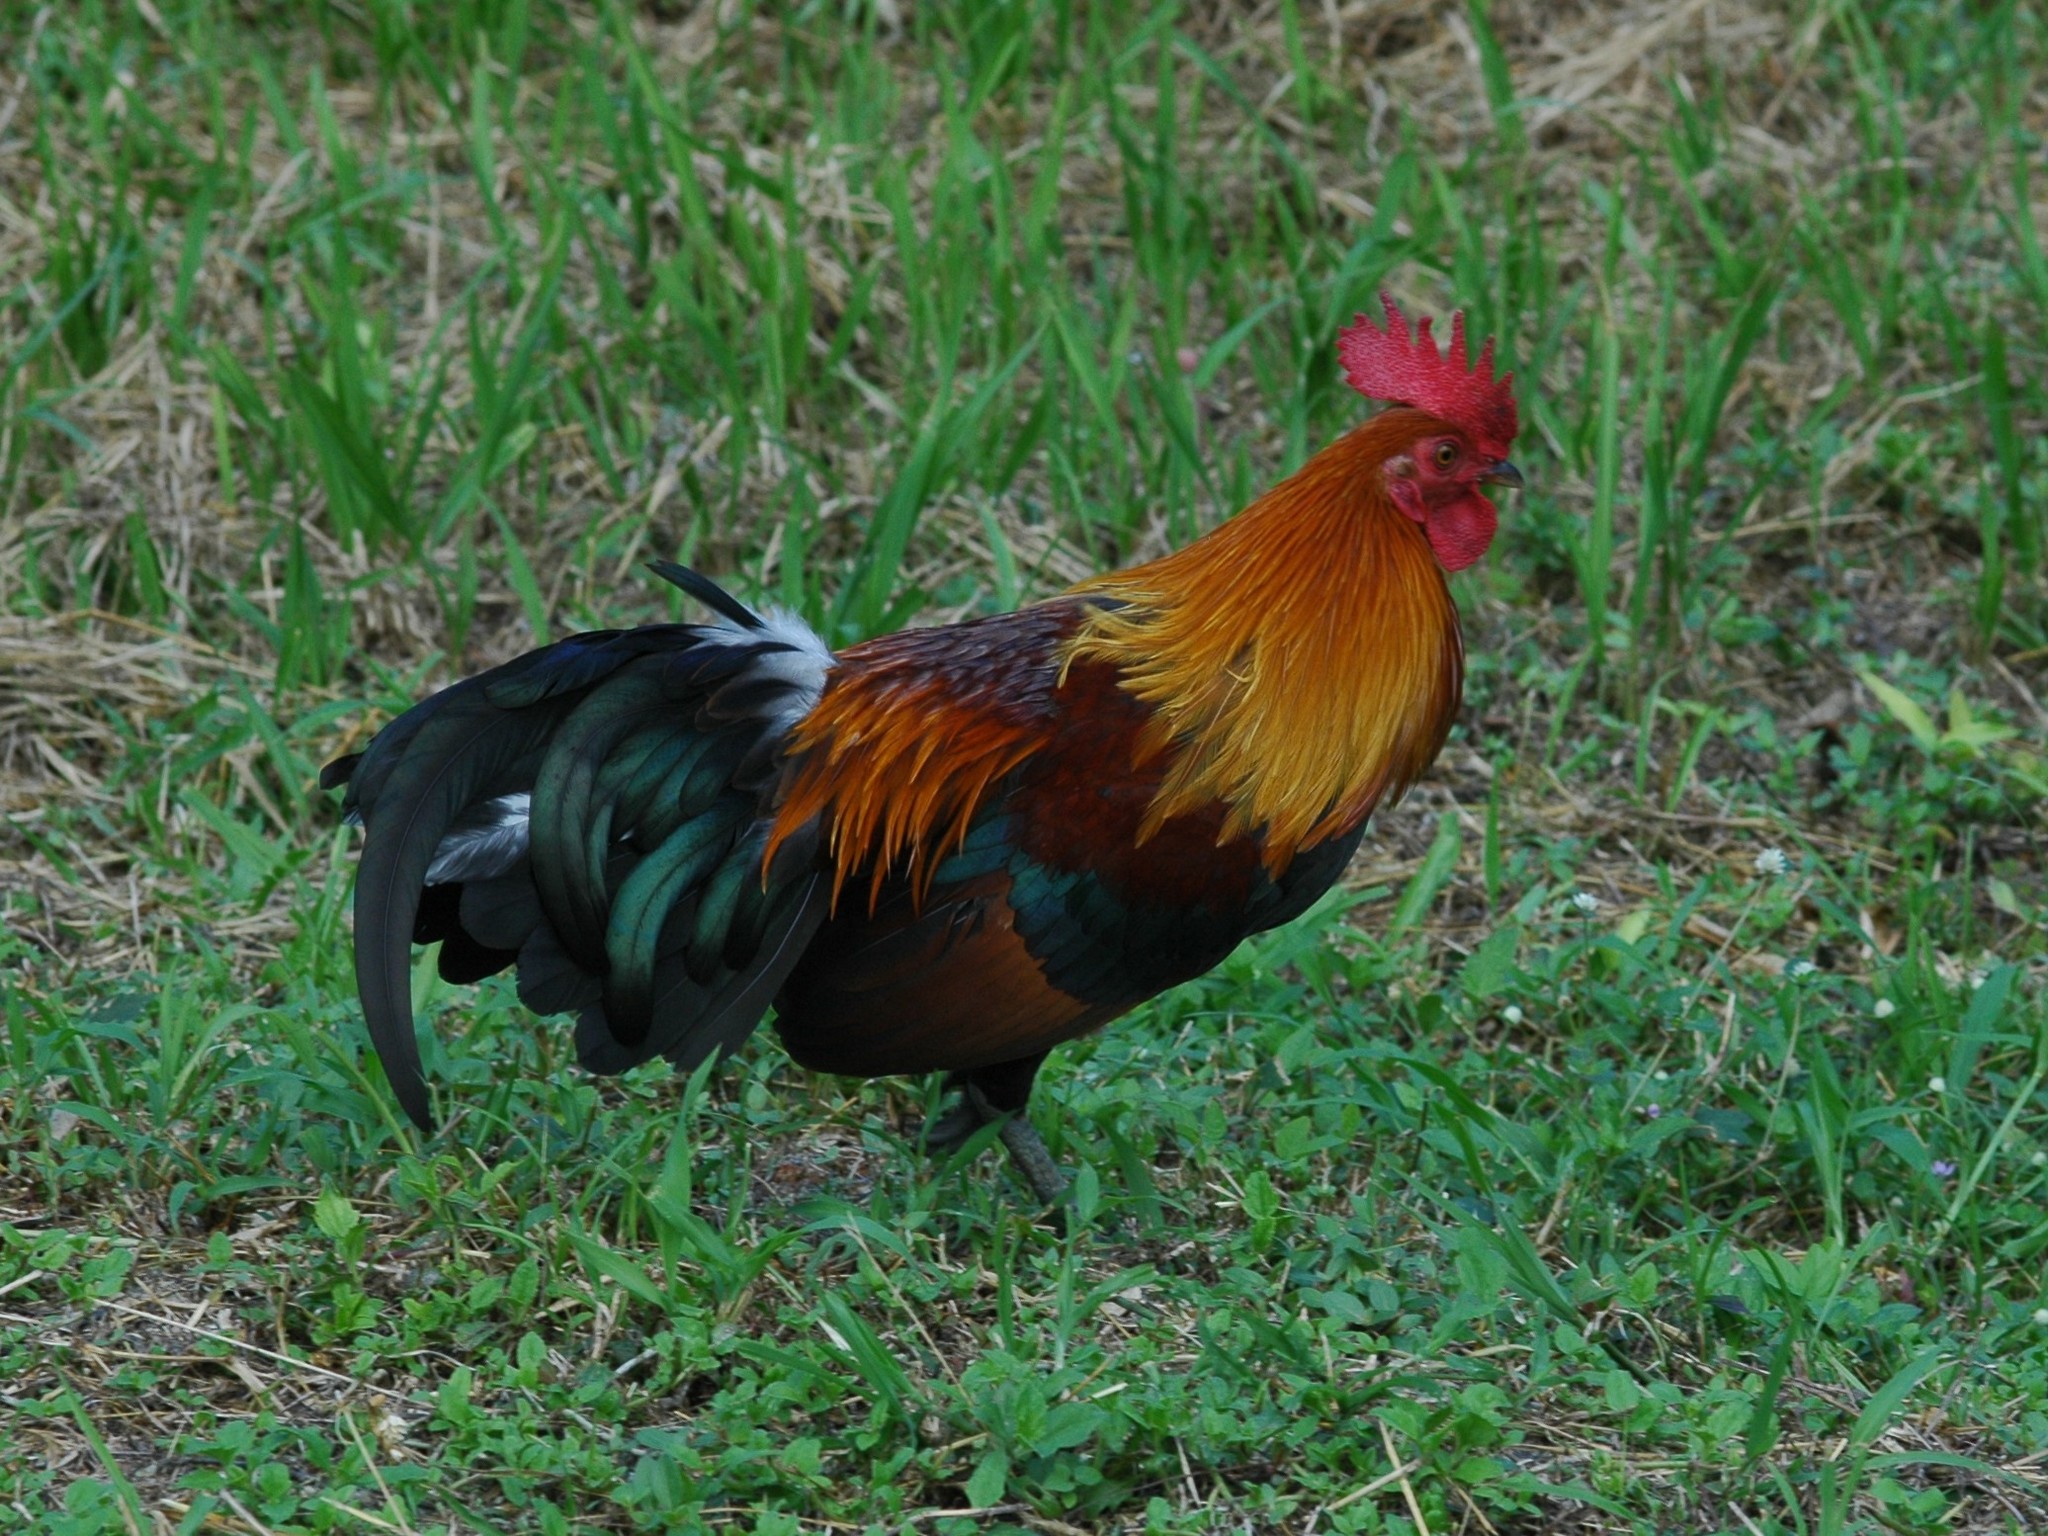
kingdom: Animalia
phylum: Chordata
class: Aves
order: Galliformes
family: Phasianidae
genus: Gallus
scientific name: Gallus gallus
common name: Red junglefowl
